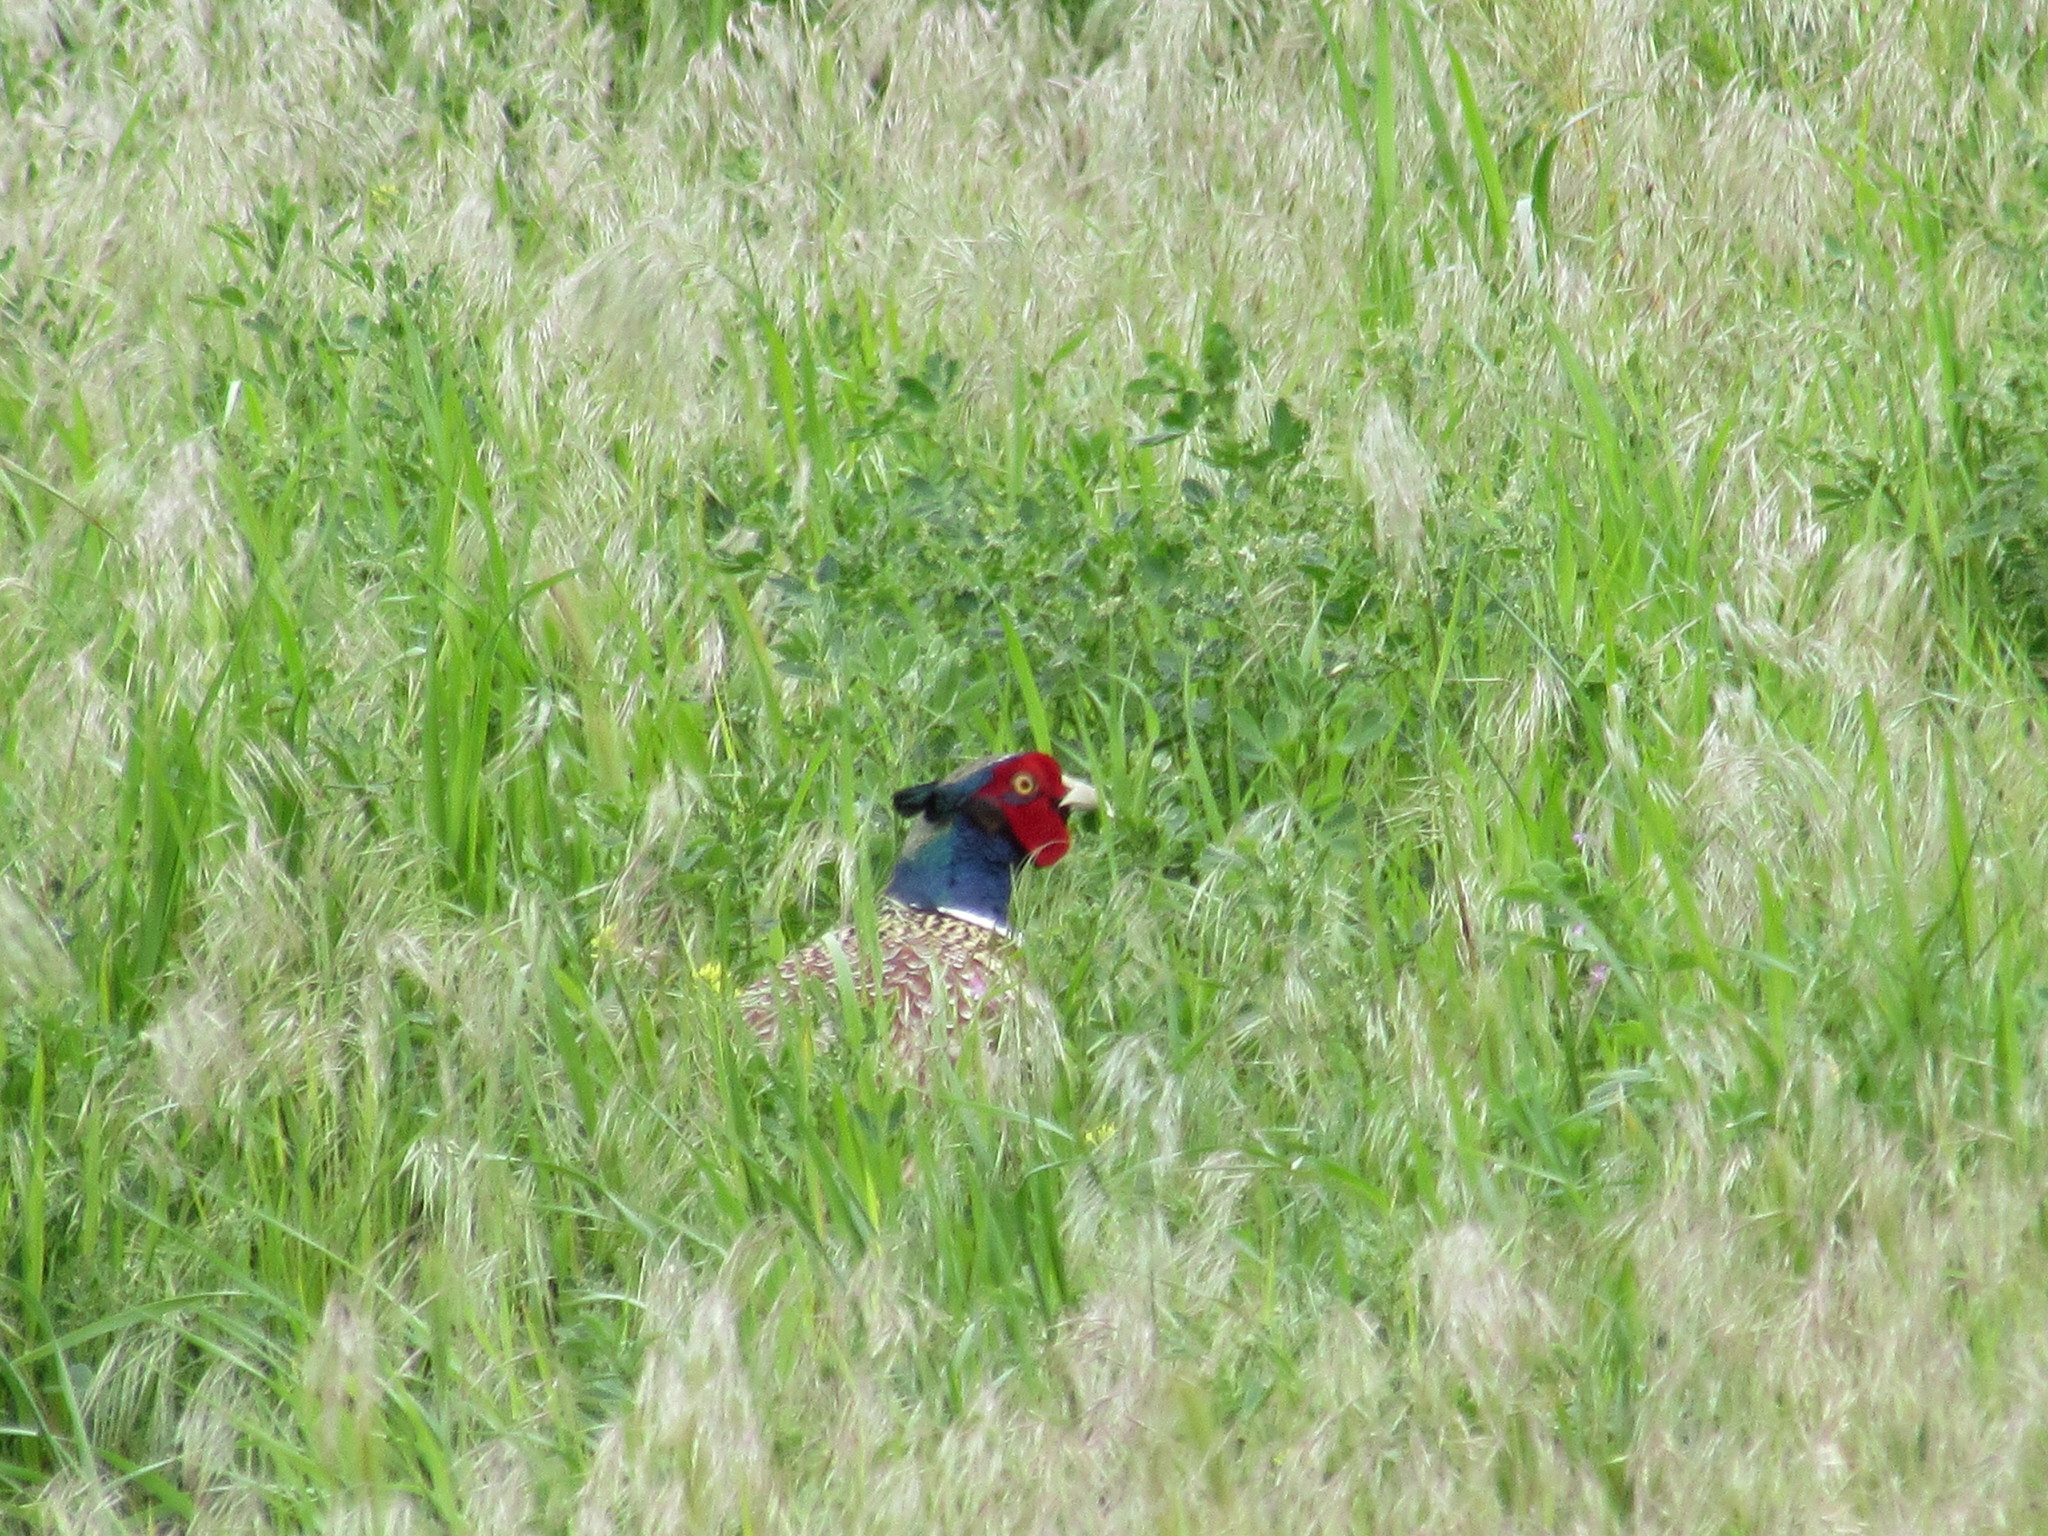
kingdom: Animalia
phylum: Chordata
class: Aves
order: Galliformes
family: Phasianidae
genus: Phasianus
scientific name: Phasianus colchicus
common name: Common pheasant
